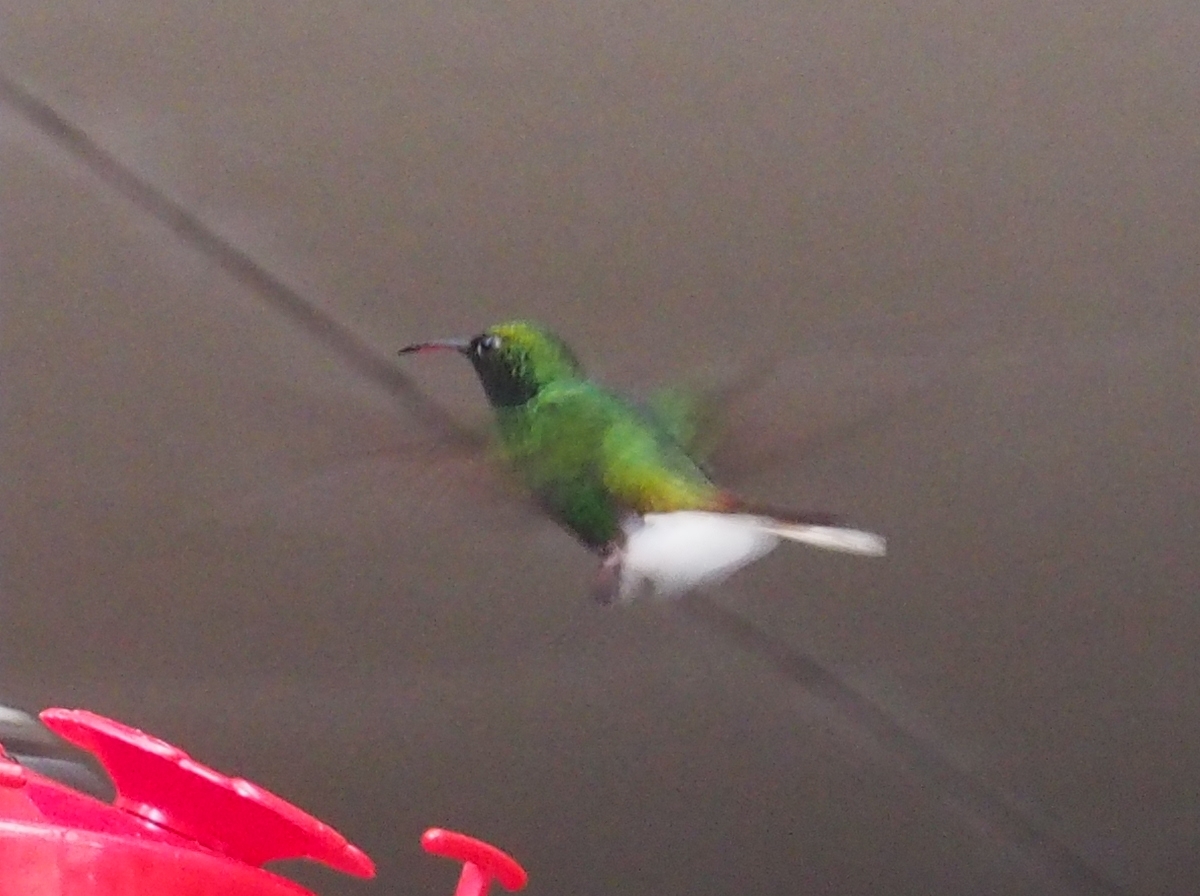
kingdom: Animalia
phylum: Chordata
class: Aves
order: Apodiformes
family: Trochilidae
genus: Microchera
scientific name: Microchera cupreiceps
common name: Coppery-headed emerald
